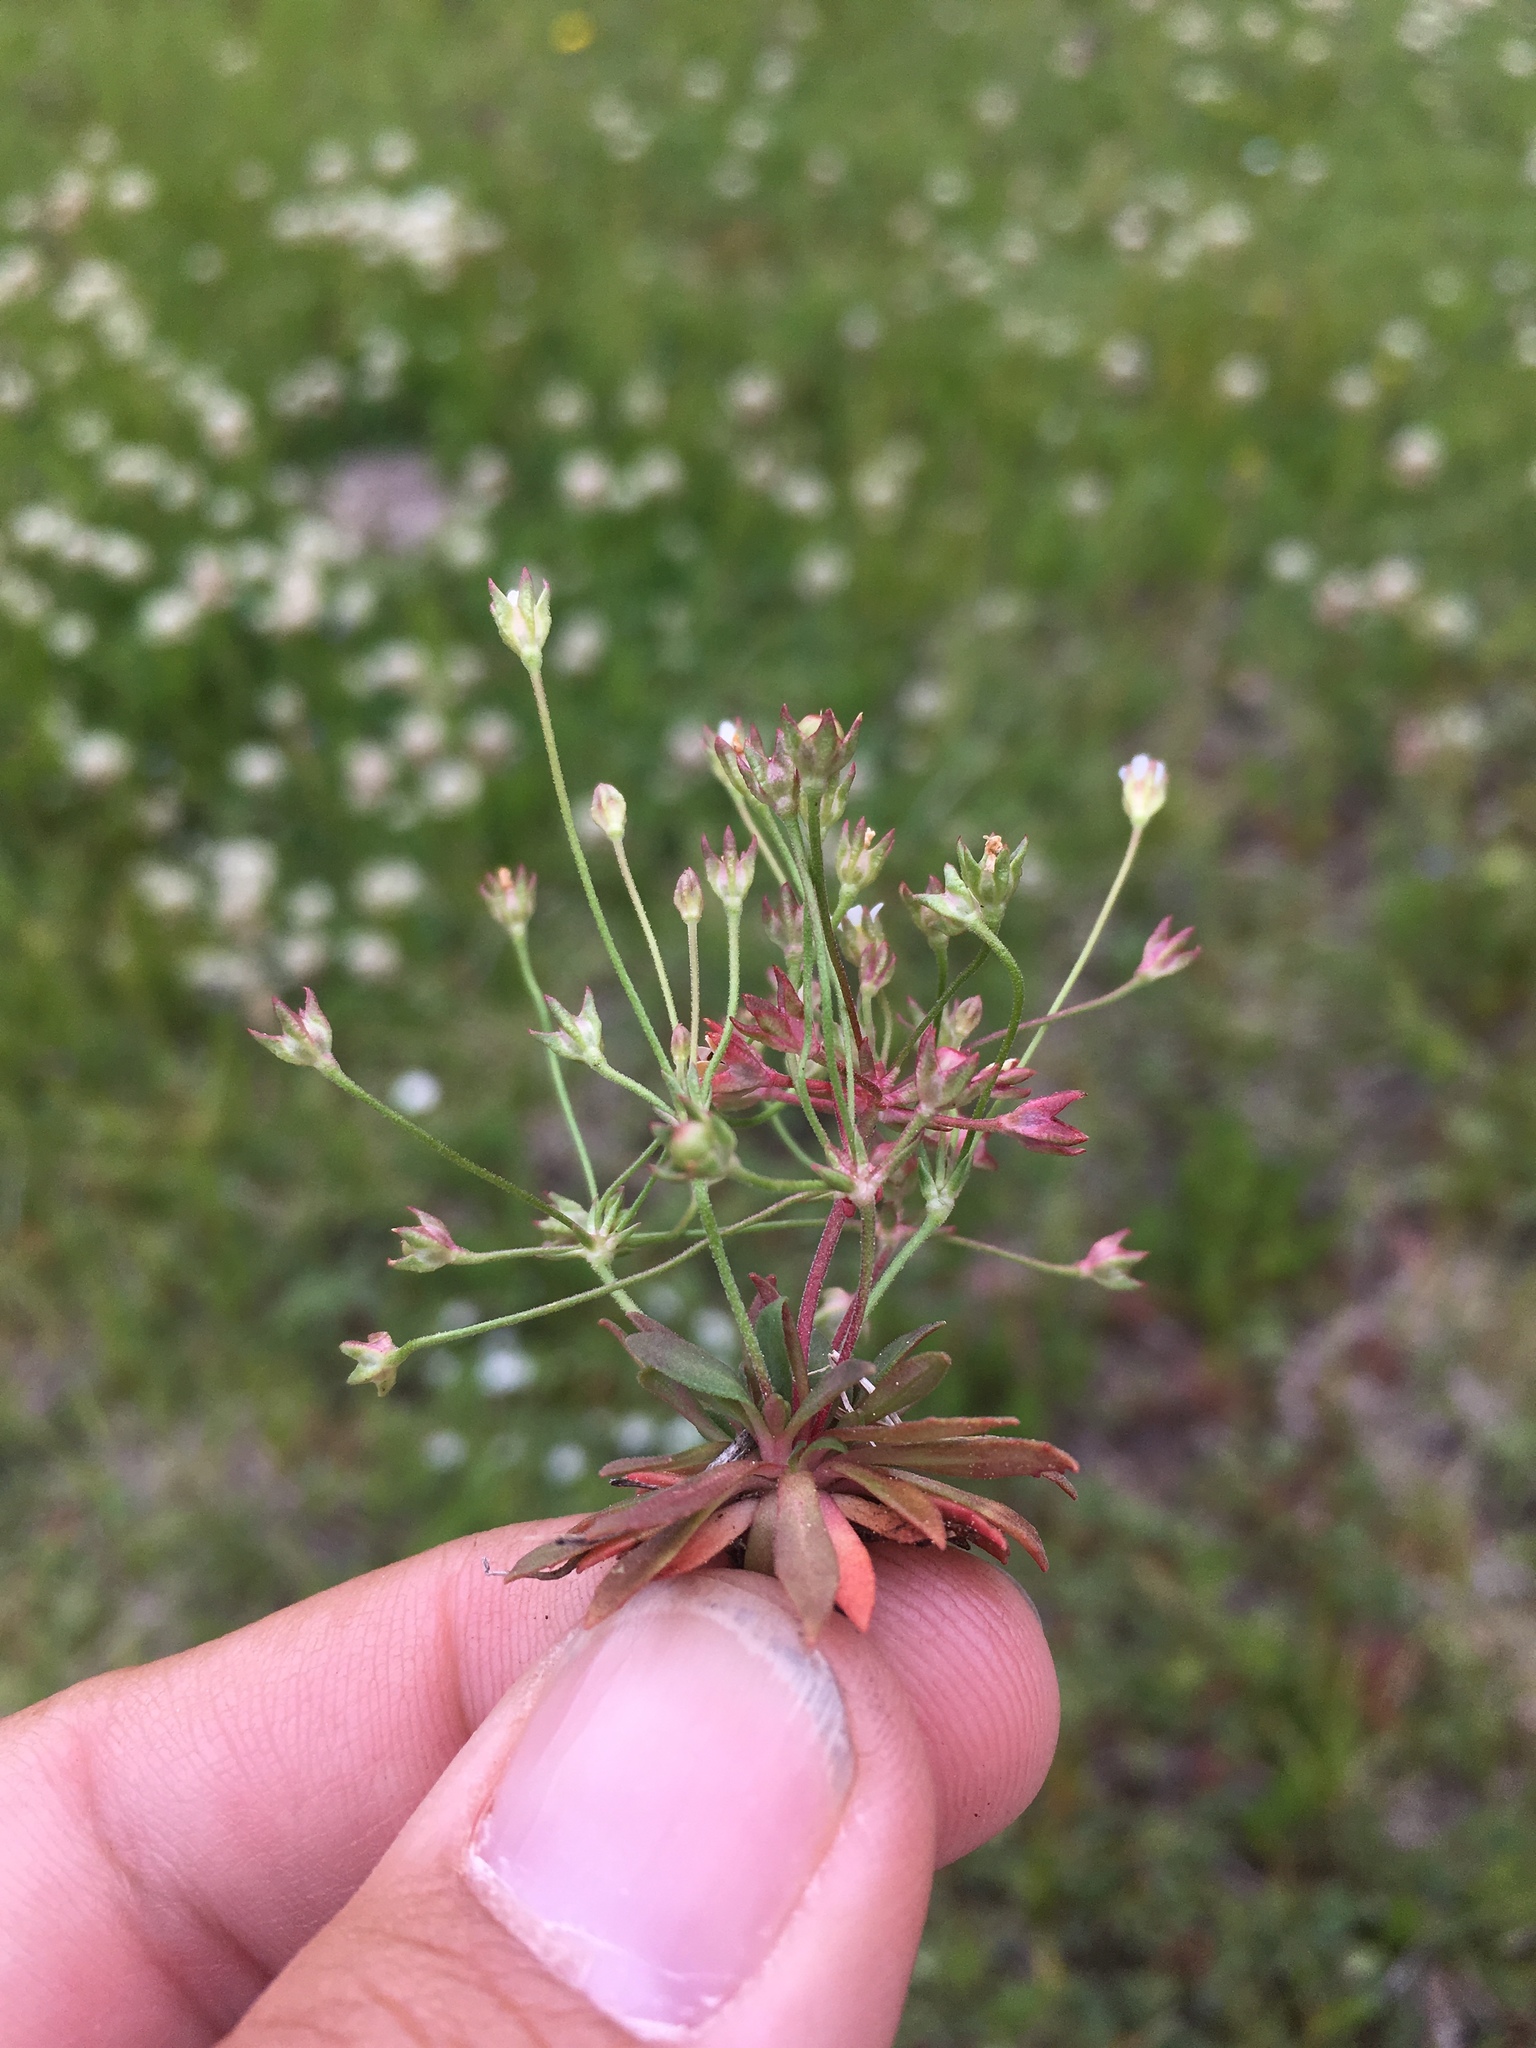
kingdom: Plantae
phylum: Tracheophyta
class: Magnoliopsida
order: Ericales
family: Primulaceae
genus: Androsace
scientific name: Androsace septentrionalis
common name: Hairy northern fairy-candelabra
